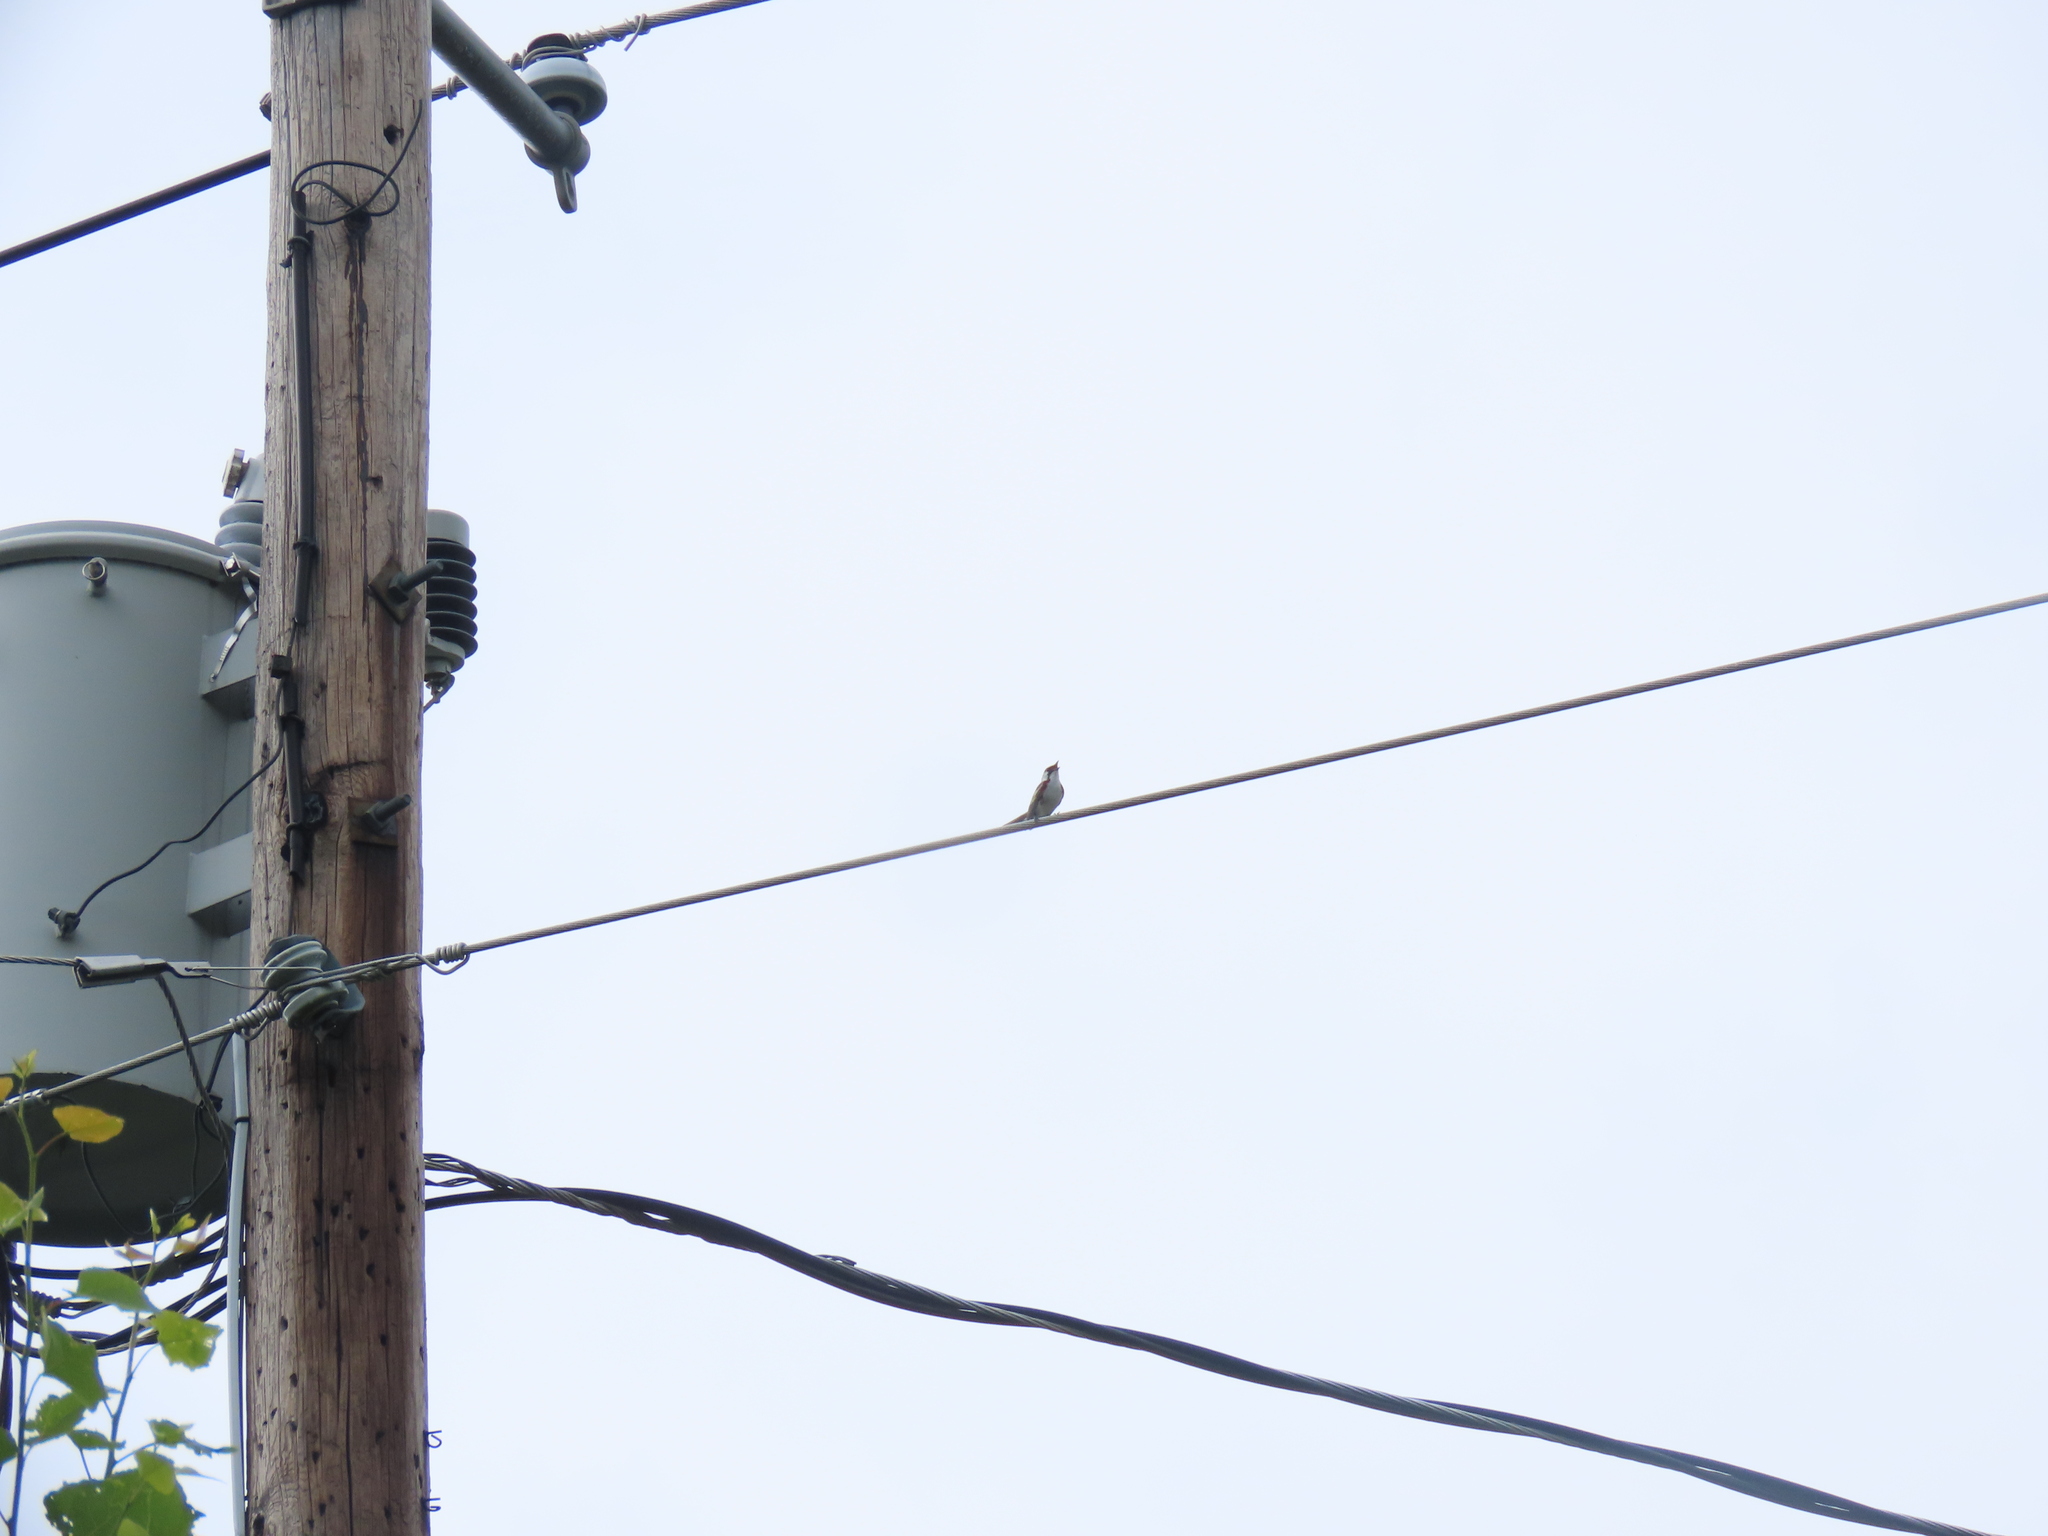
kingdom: Animalia
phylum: Chordata
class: Aves
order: Passeriformes
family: Parulidae
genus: Setophaga
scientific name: Setophaga pensylvanica
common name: Chestnut-sided warbler
